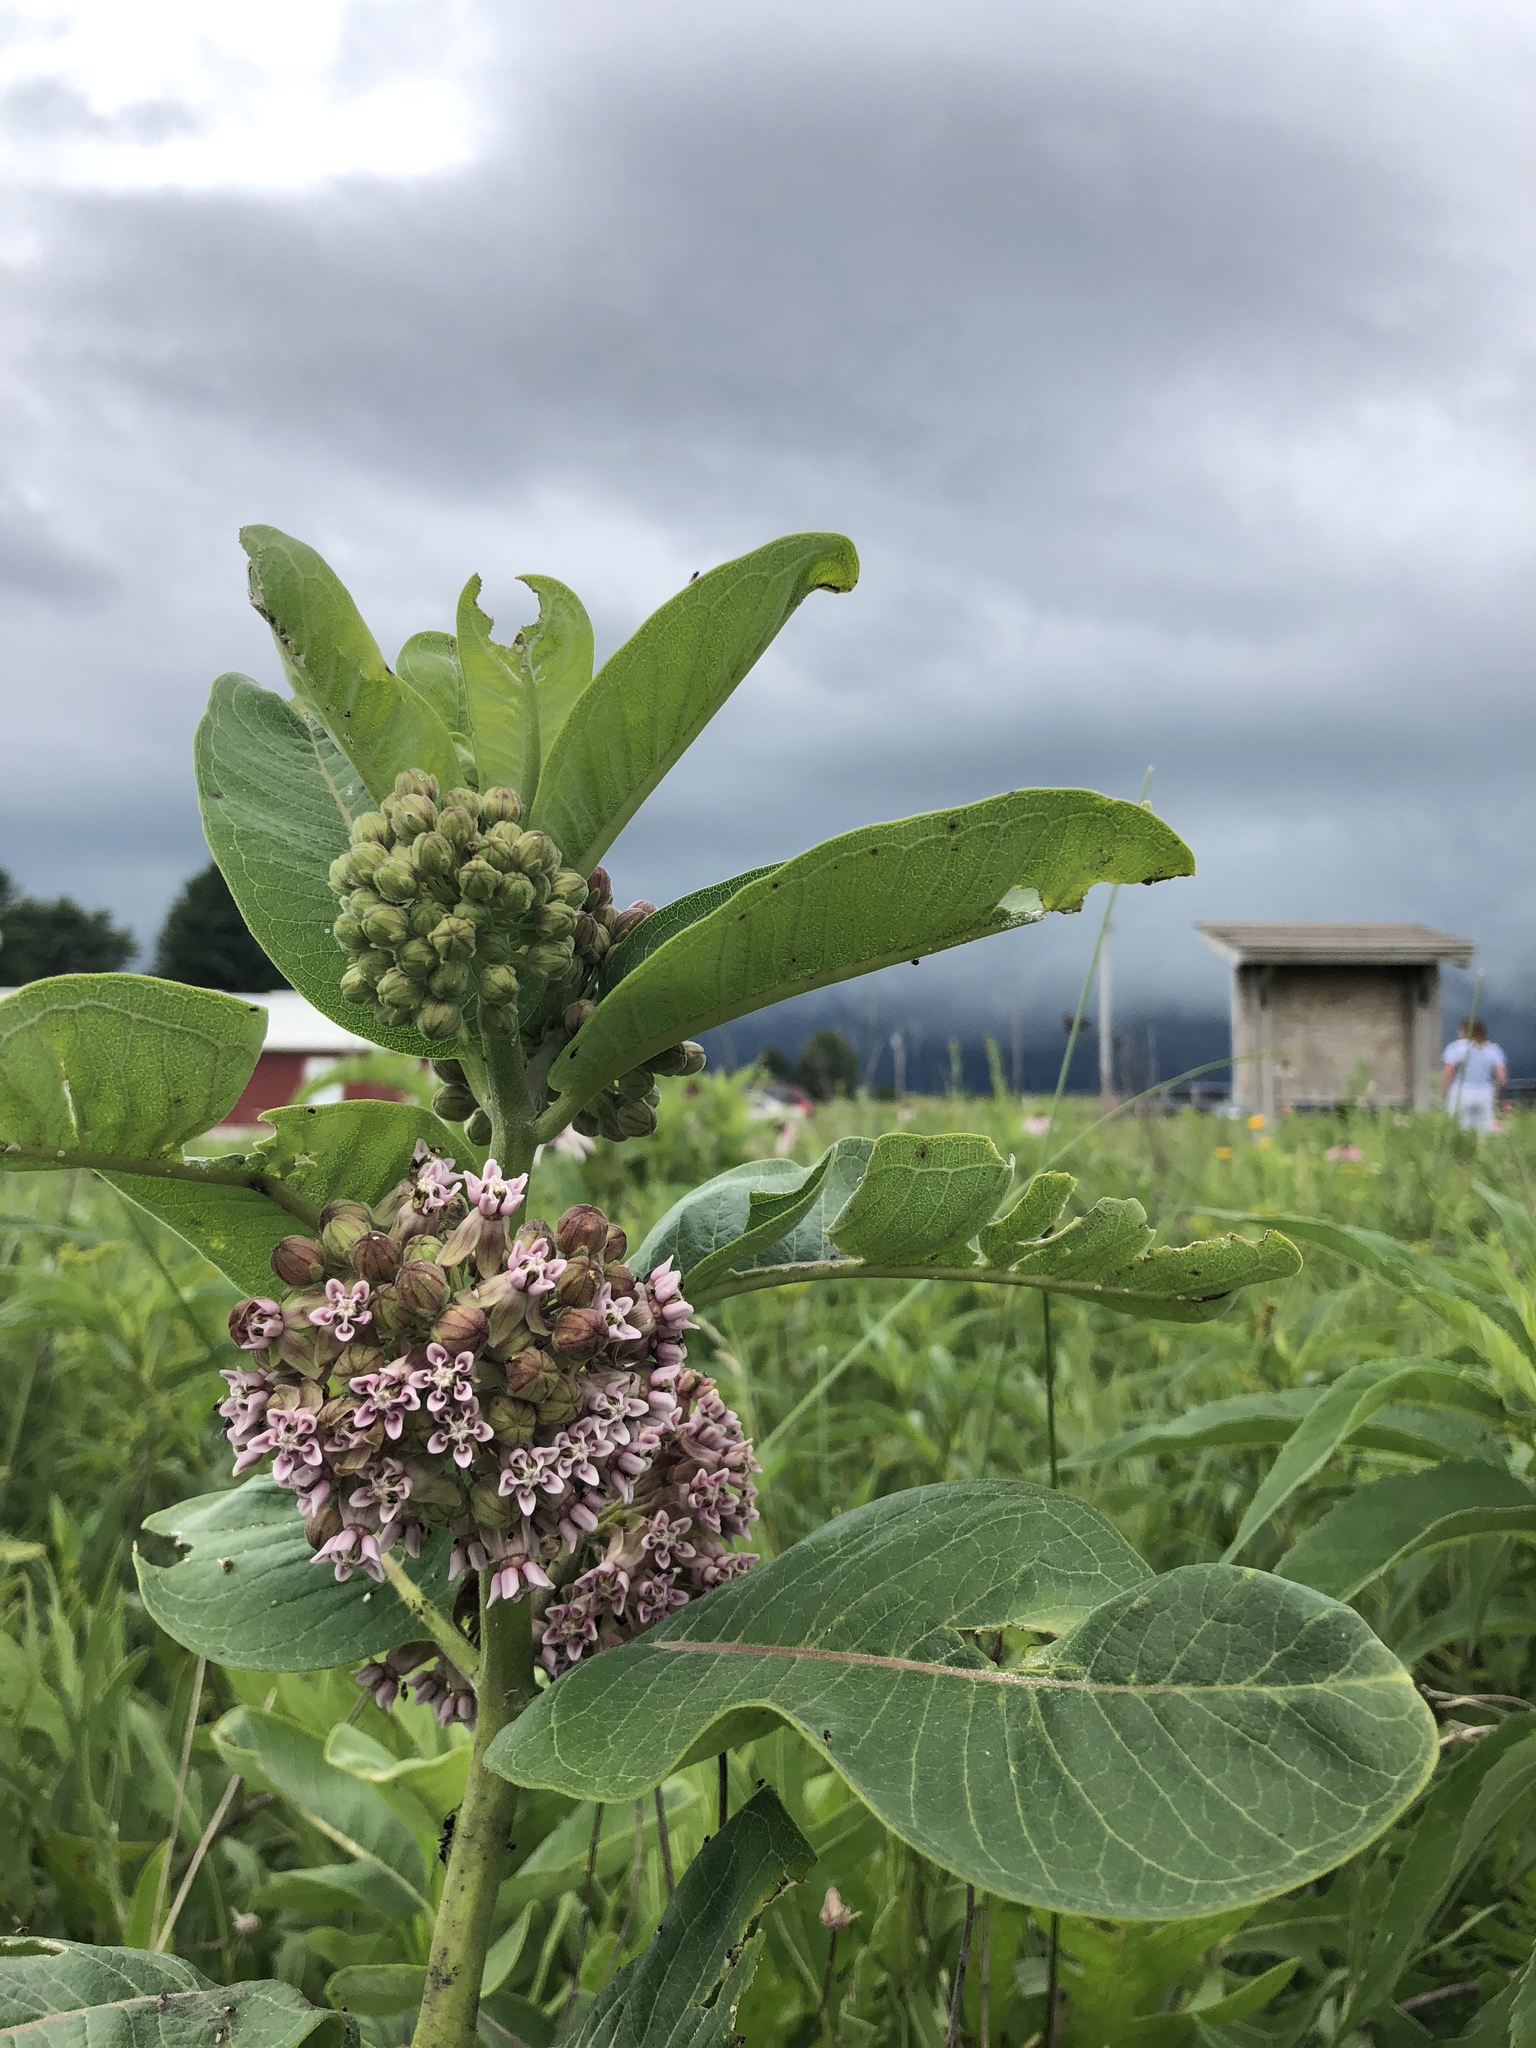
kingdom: Plantae
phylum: Tracheophyta
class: Magnoliopsida
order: Gentianales
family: Apocynaceae
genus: Asclepias
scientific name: Asclepias syriaca
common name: Common milkweed
